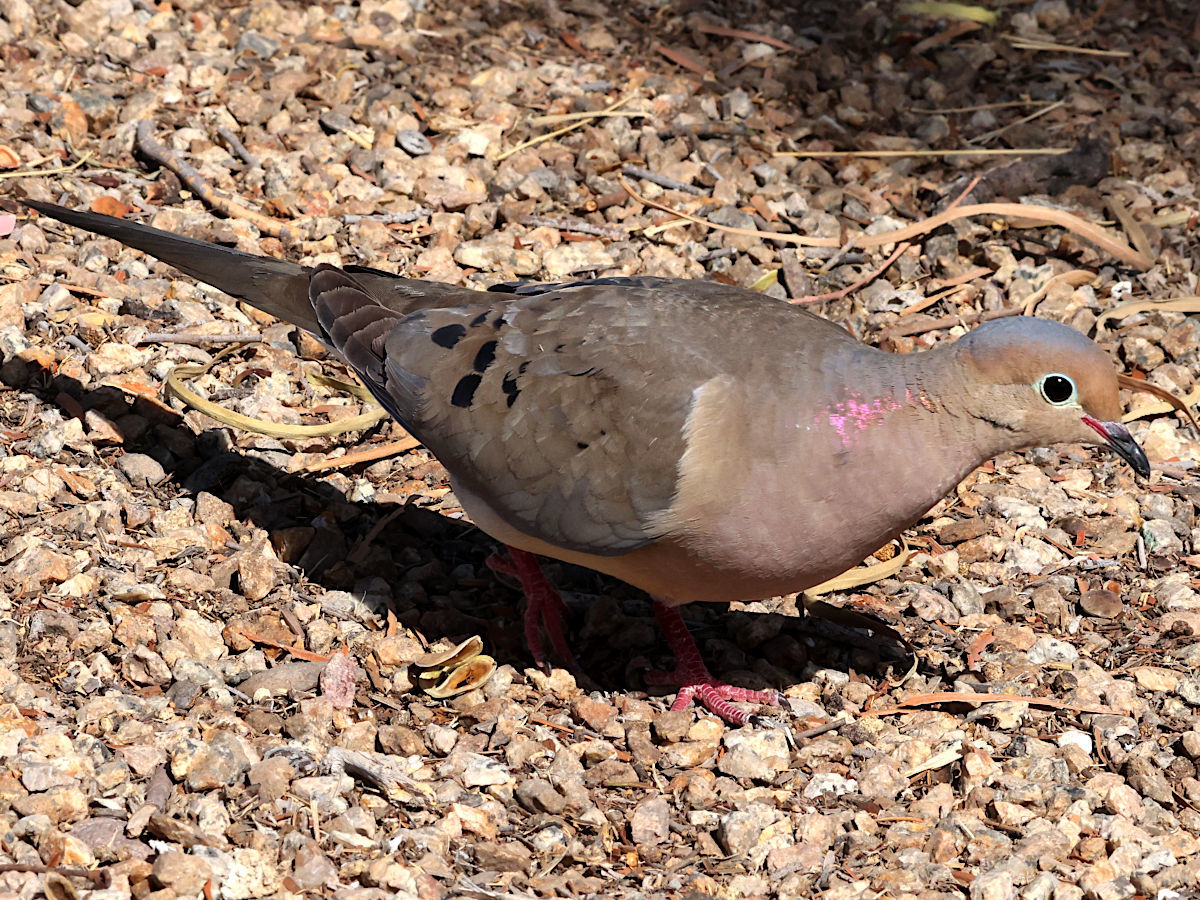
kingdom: Animalia
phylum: Chordata
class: Aves
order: Columbiformes
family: Columbidae
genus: Zenaida
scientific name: Zenaida macroura
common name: Mourning dove
